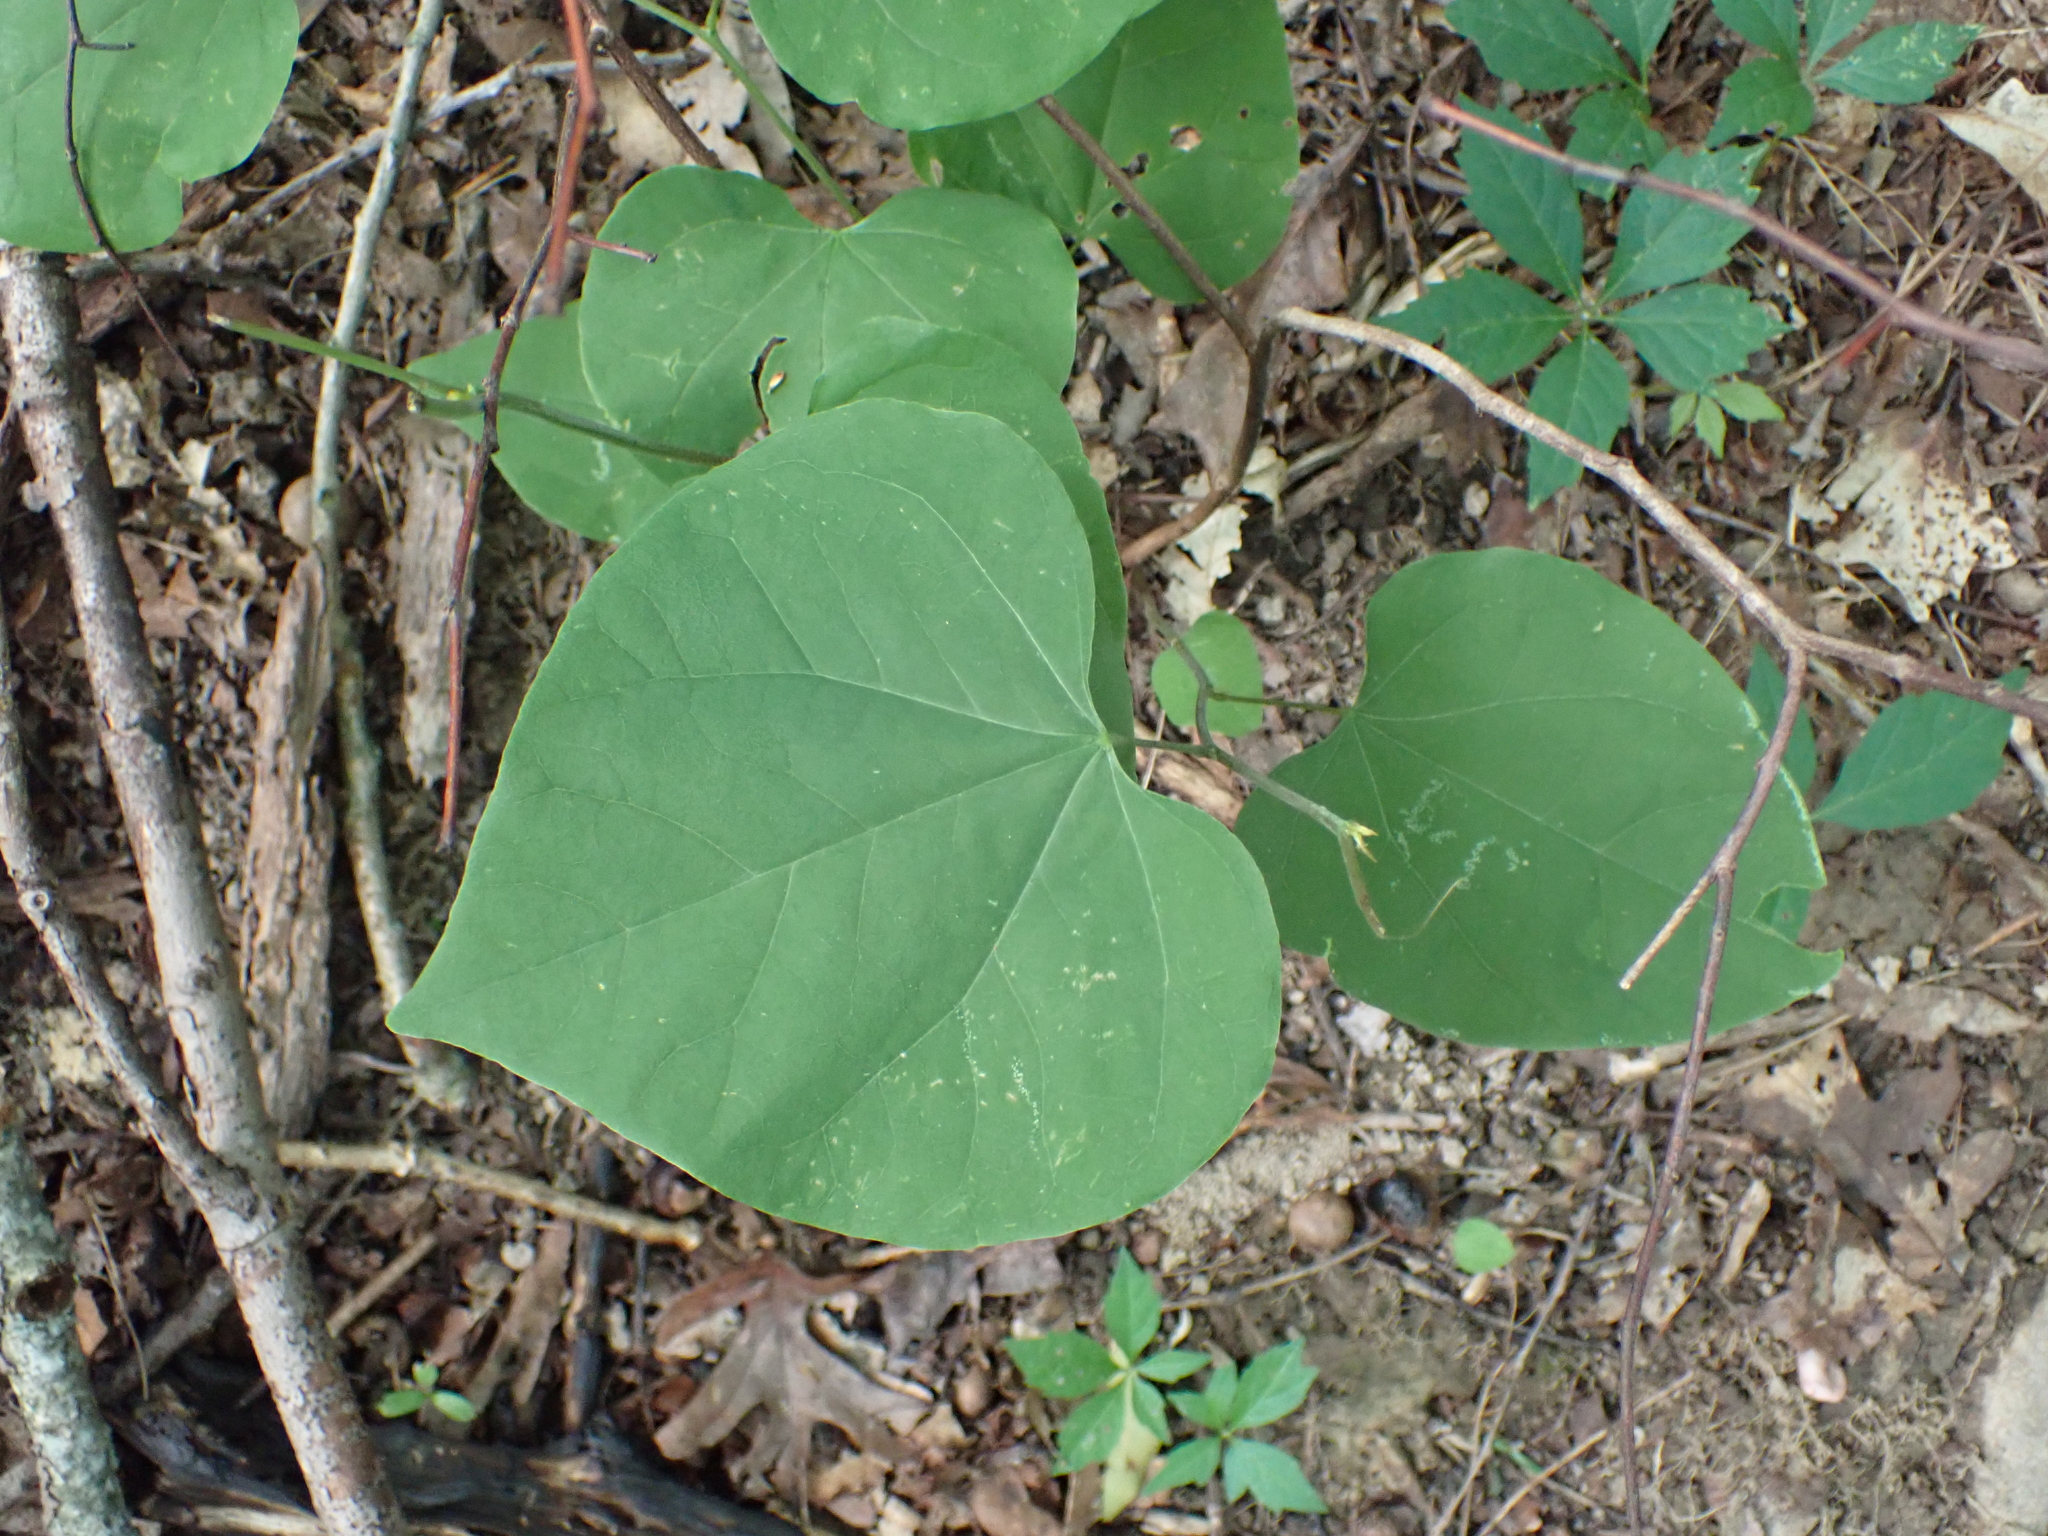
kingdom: Plantae
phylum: Tracheophyta
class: Magnoliopsida
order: Fabales
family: Fabaceae
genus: Cercis
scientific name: Cercis canadensis
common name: Eastern redbud
